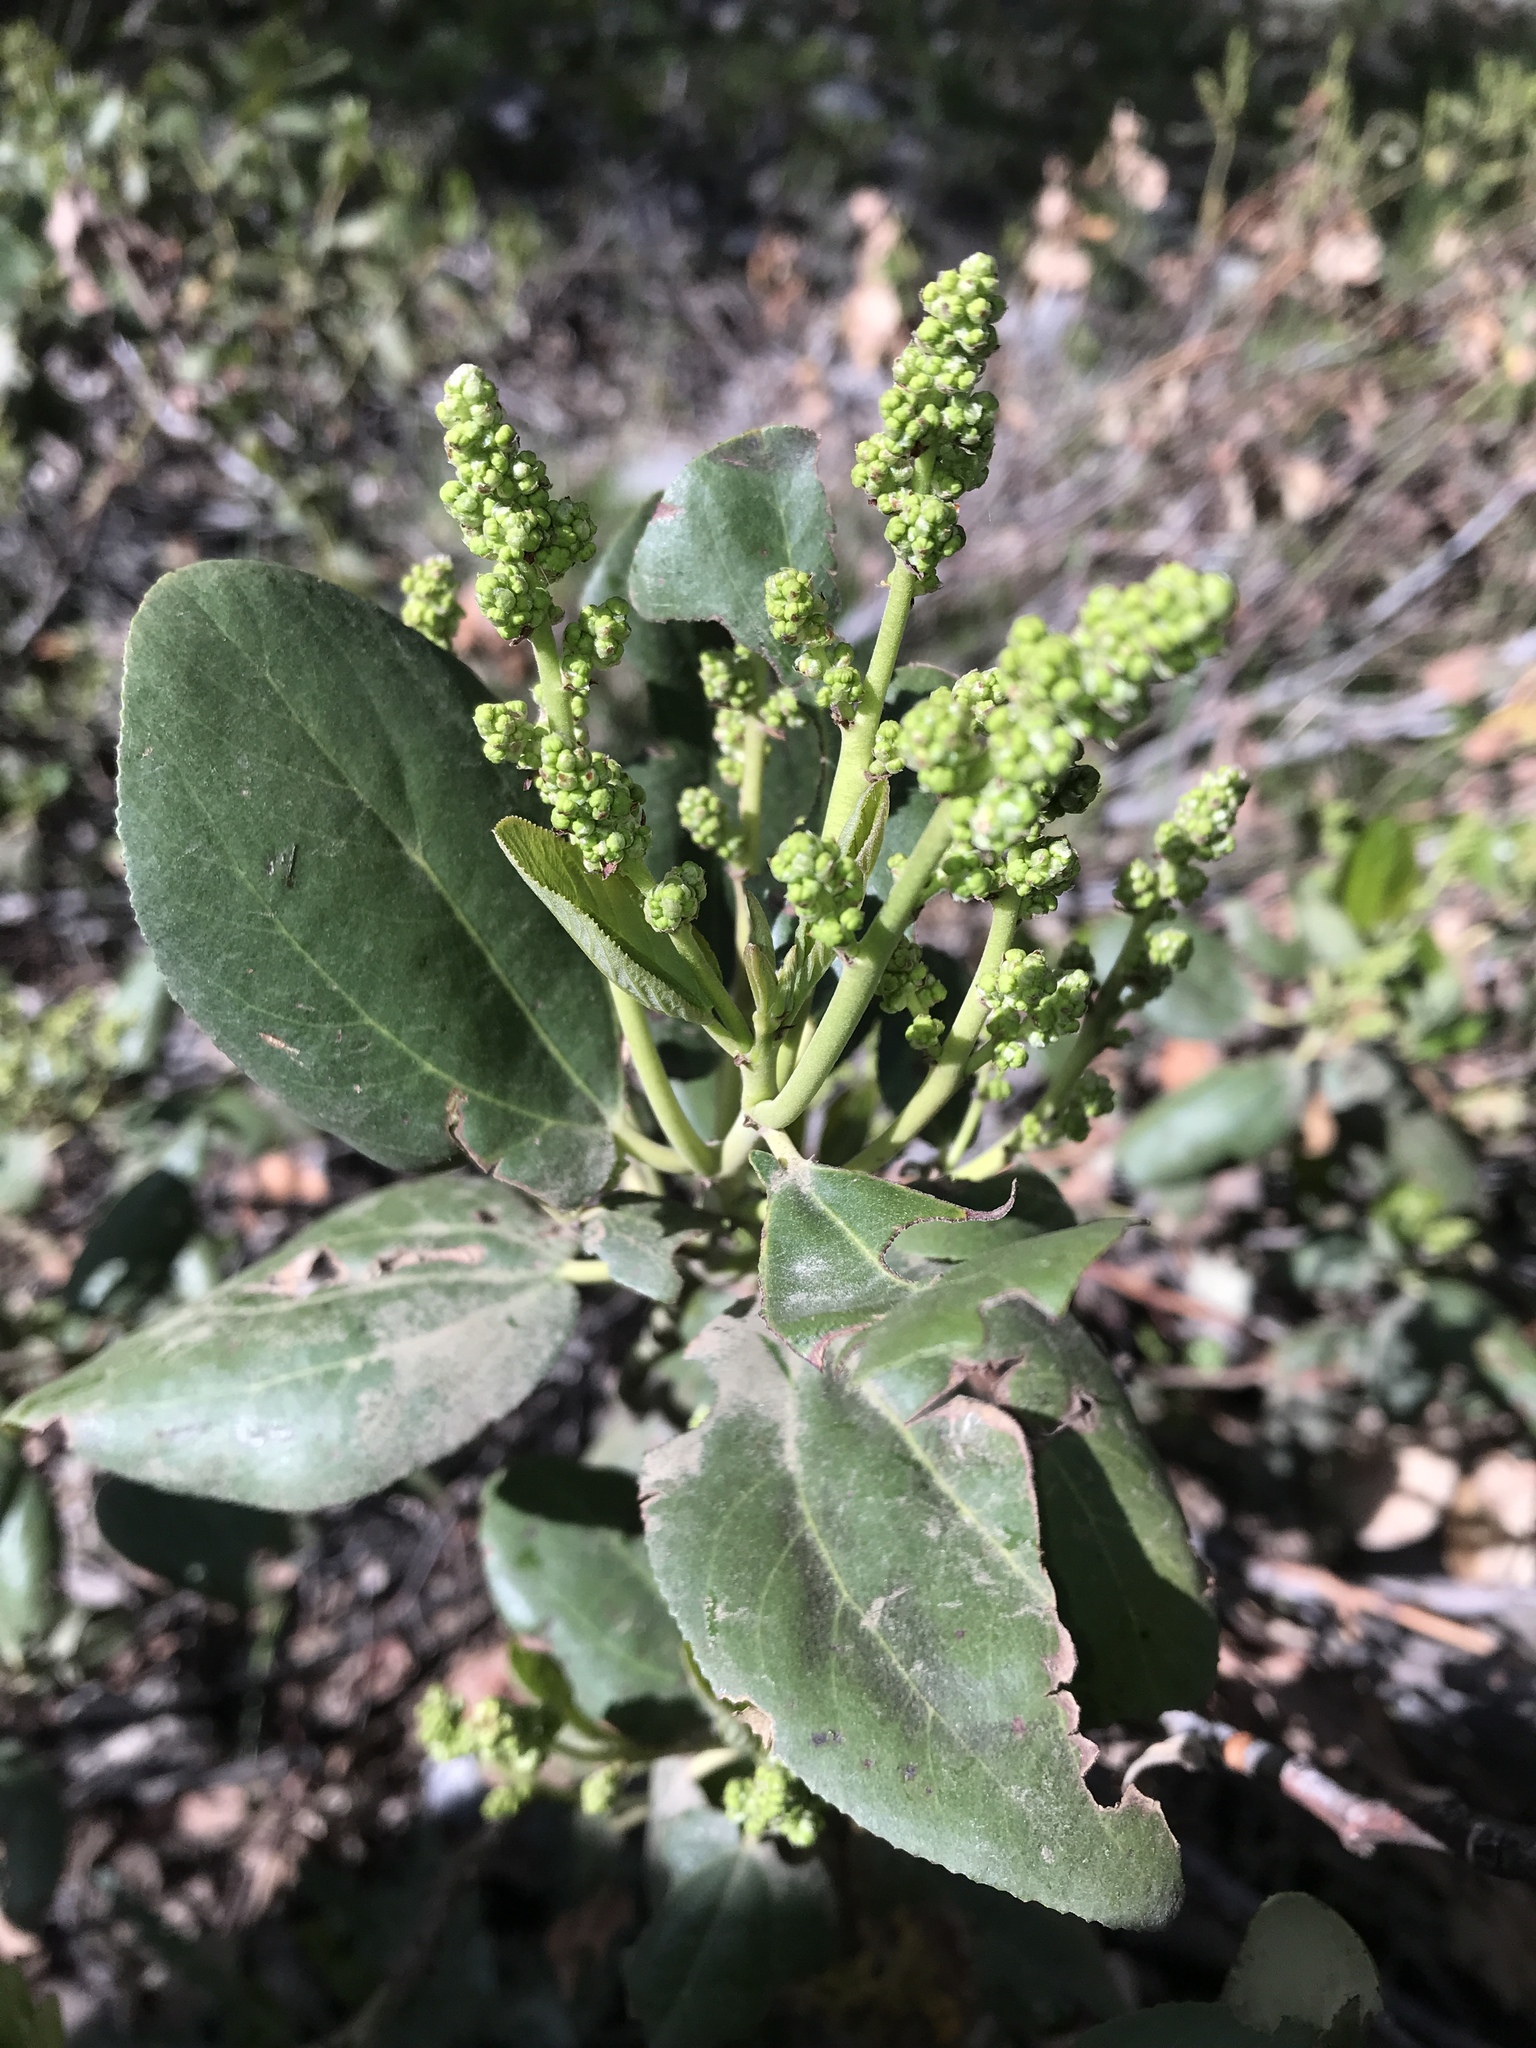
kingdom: Plantae
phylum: Tracheophyta
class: Magnoliopsida
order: Rosales
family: Rhamnaceae
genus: Ceanothus
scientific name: Ceanothus velutinus
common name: Snowbrush
